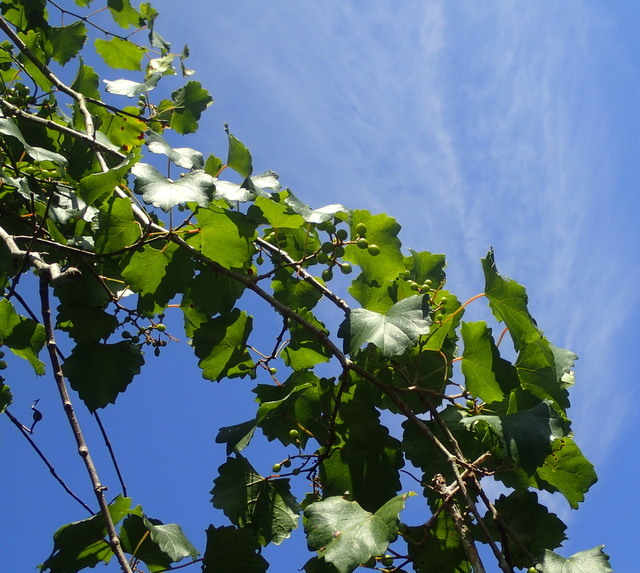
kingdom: Plantae
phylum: Tracheophyta
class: Magnoliopsida
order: Vitales
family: Vitaceae
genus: Vitis
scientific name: Vitis rotundifolia
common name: Muscadine grape
